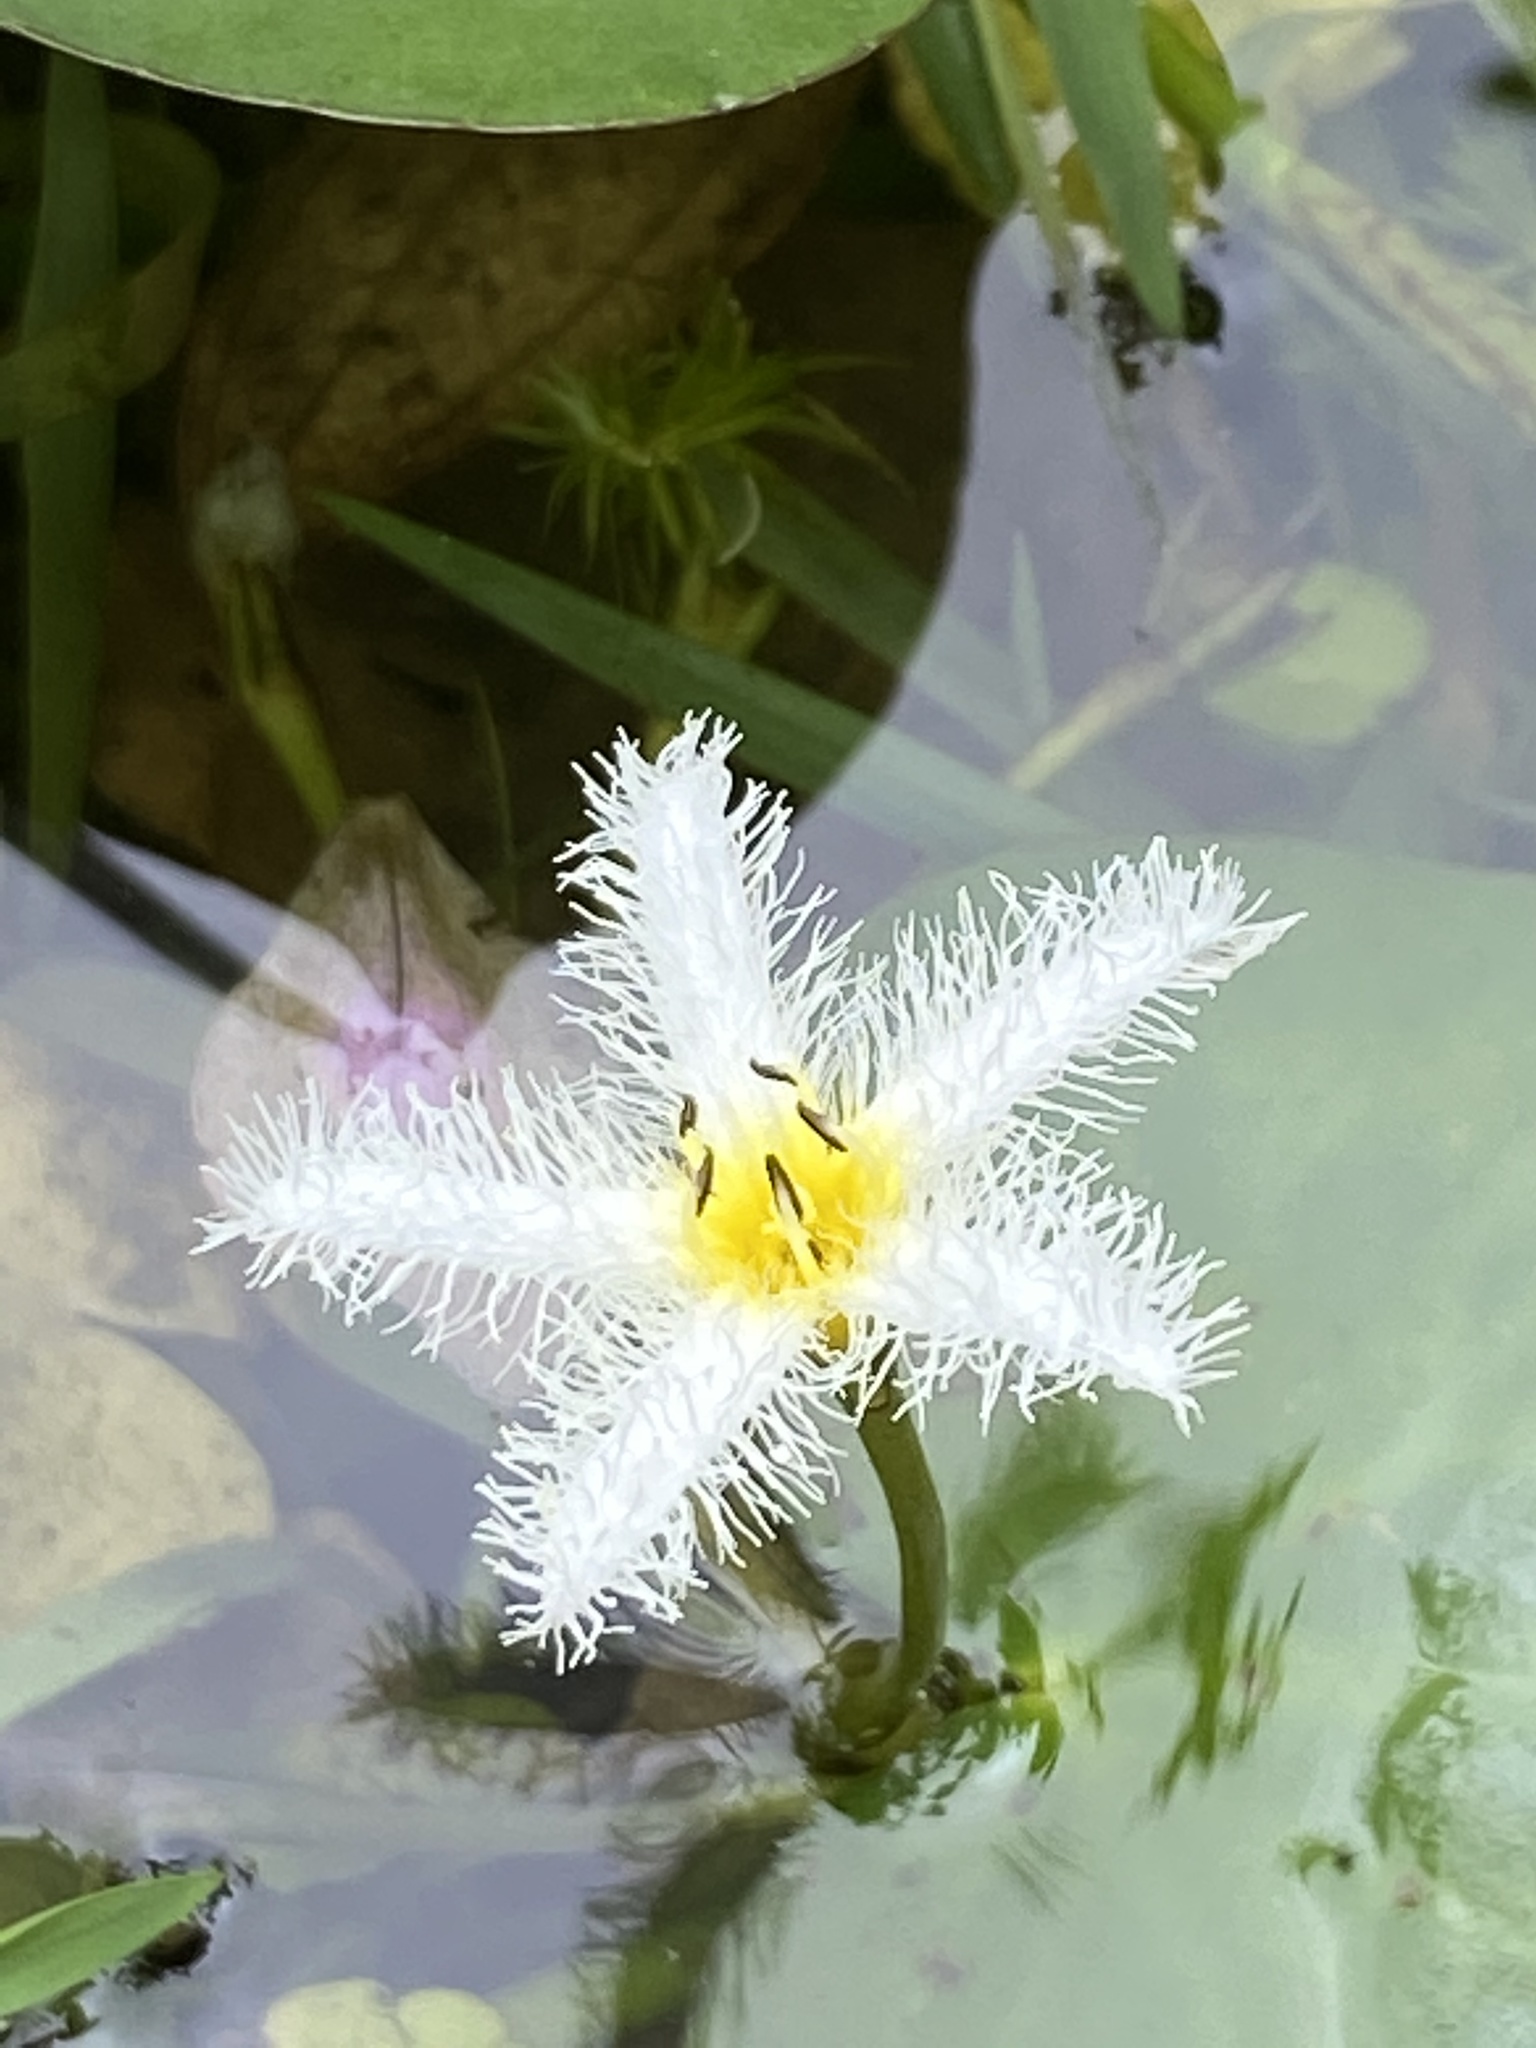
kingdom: Plantae
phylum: Tracheophyta
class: Magnoliopsida
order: Asterales
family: Menyanthaceae
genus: Nymphoides
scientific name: Nymphoides humboldtiana
